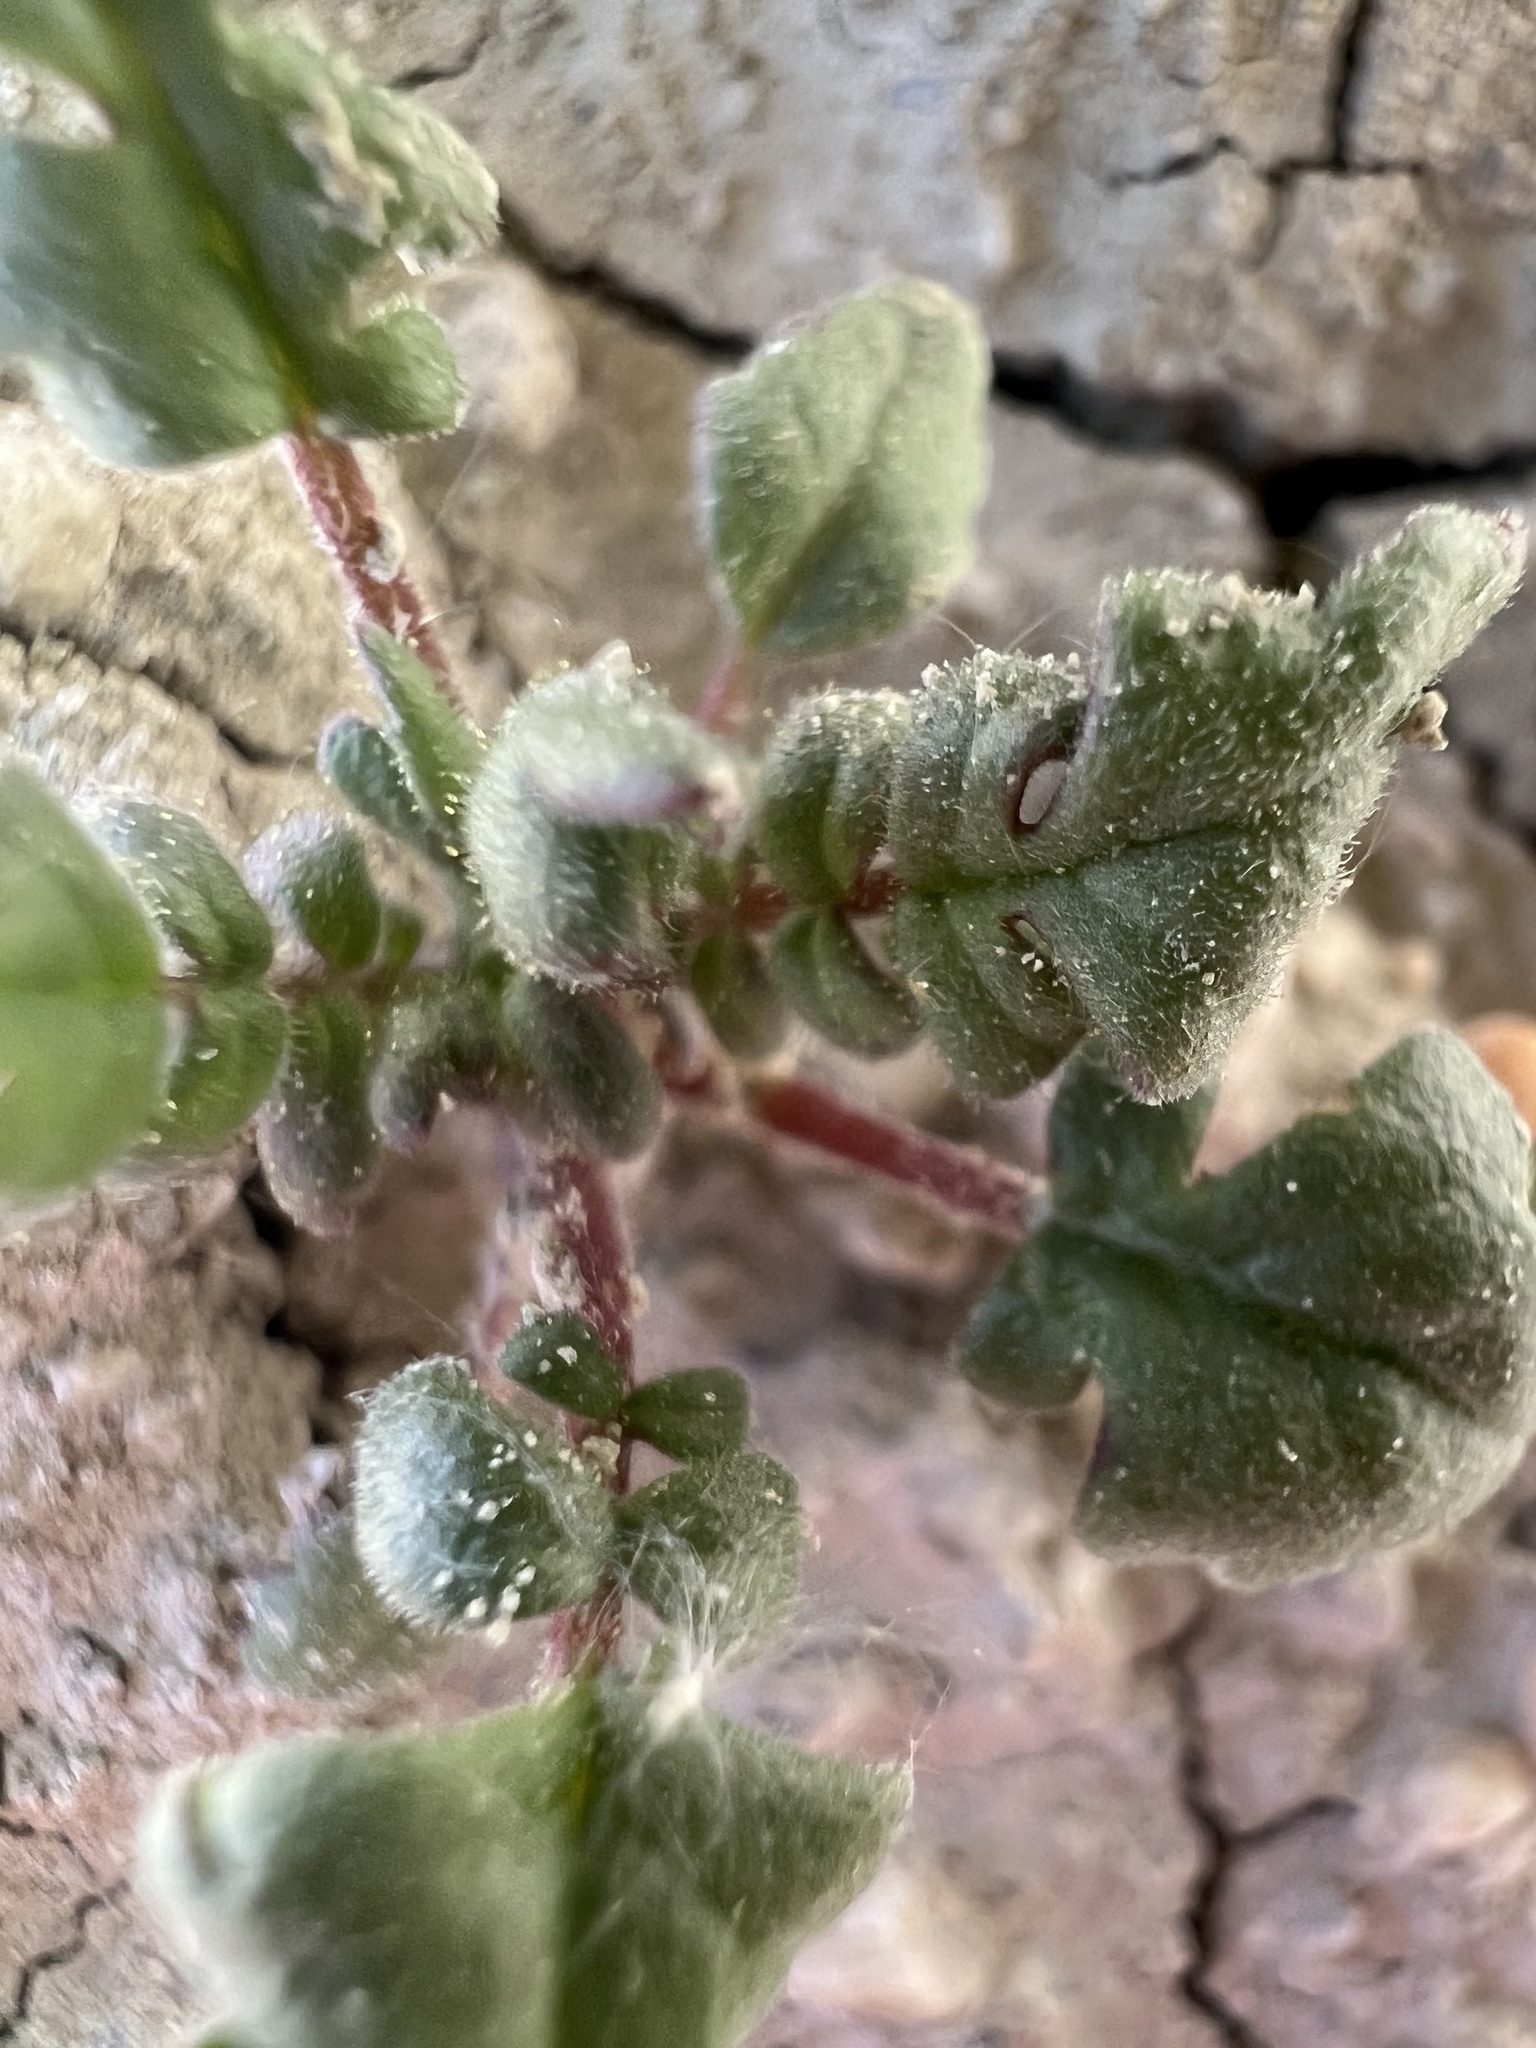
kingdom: Plantae
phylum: Tracheophyta
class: Magnoliopsida
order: Boraginales
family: Hydrophyllaceae
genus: Phacelia
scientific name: Phacelia gina-glenneae
